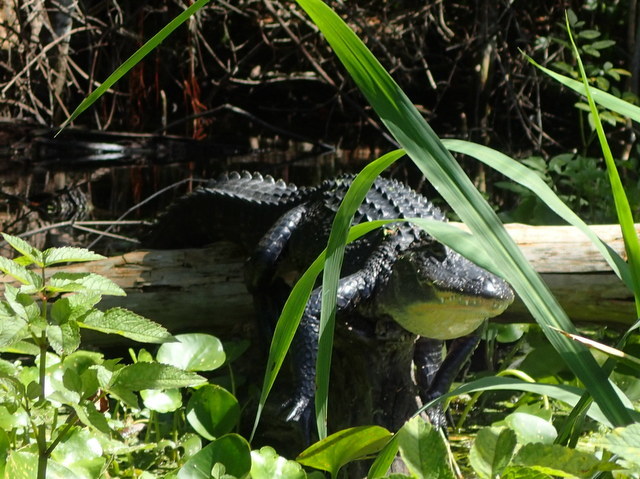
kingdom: Animalia
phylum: Chordata
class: Crocodylia
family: Alligatoridae
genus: Alligator
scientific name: Alligator mississippiensis
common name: American alligator
